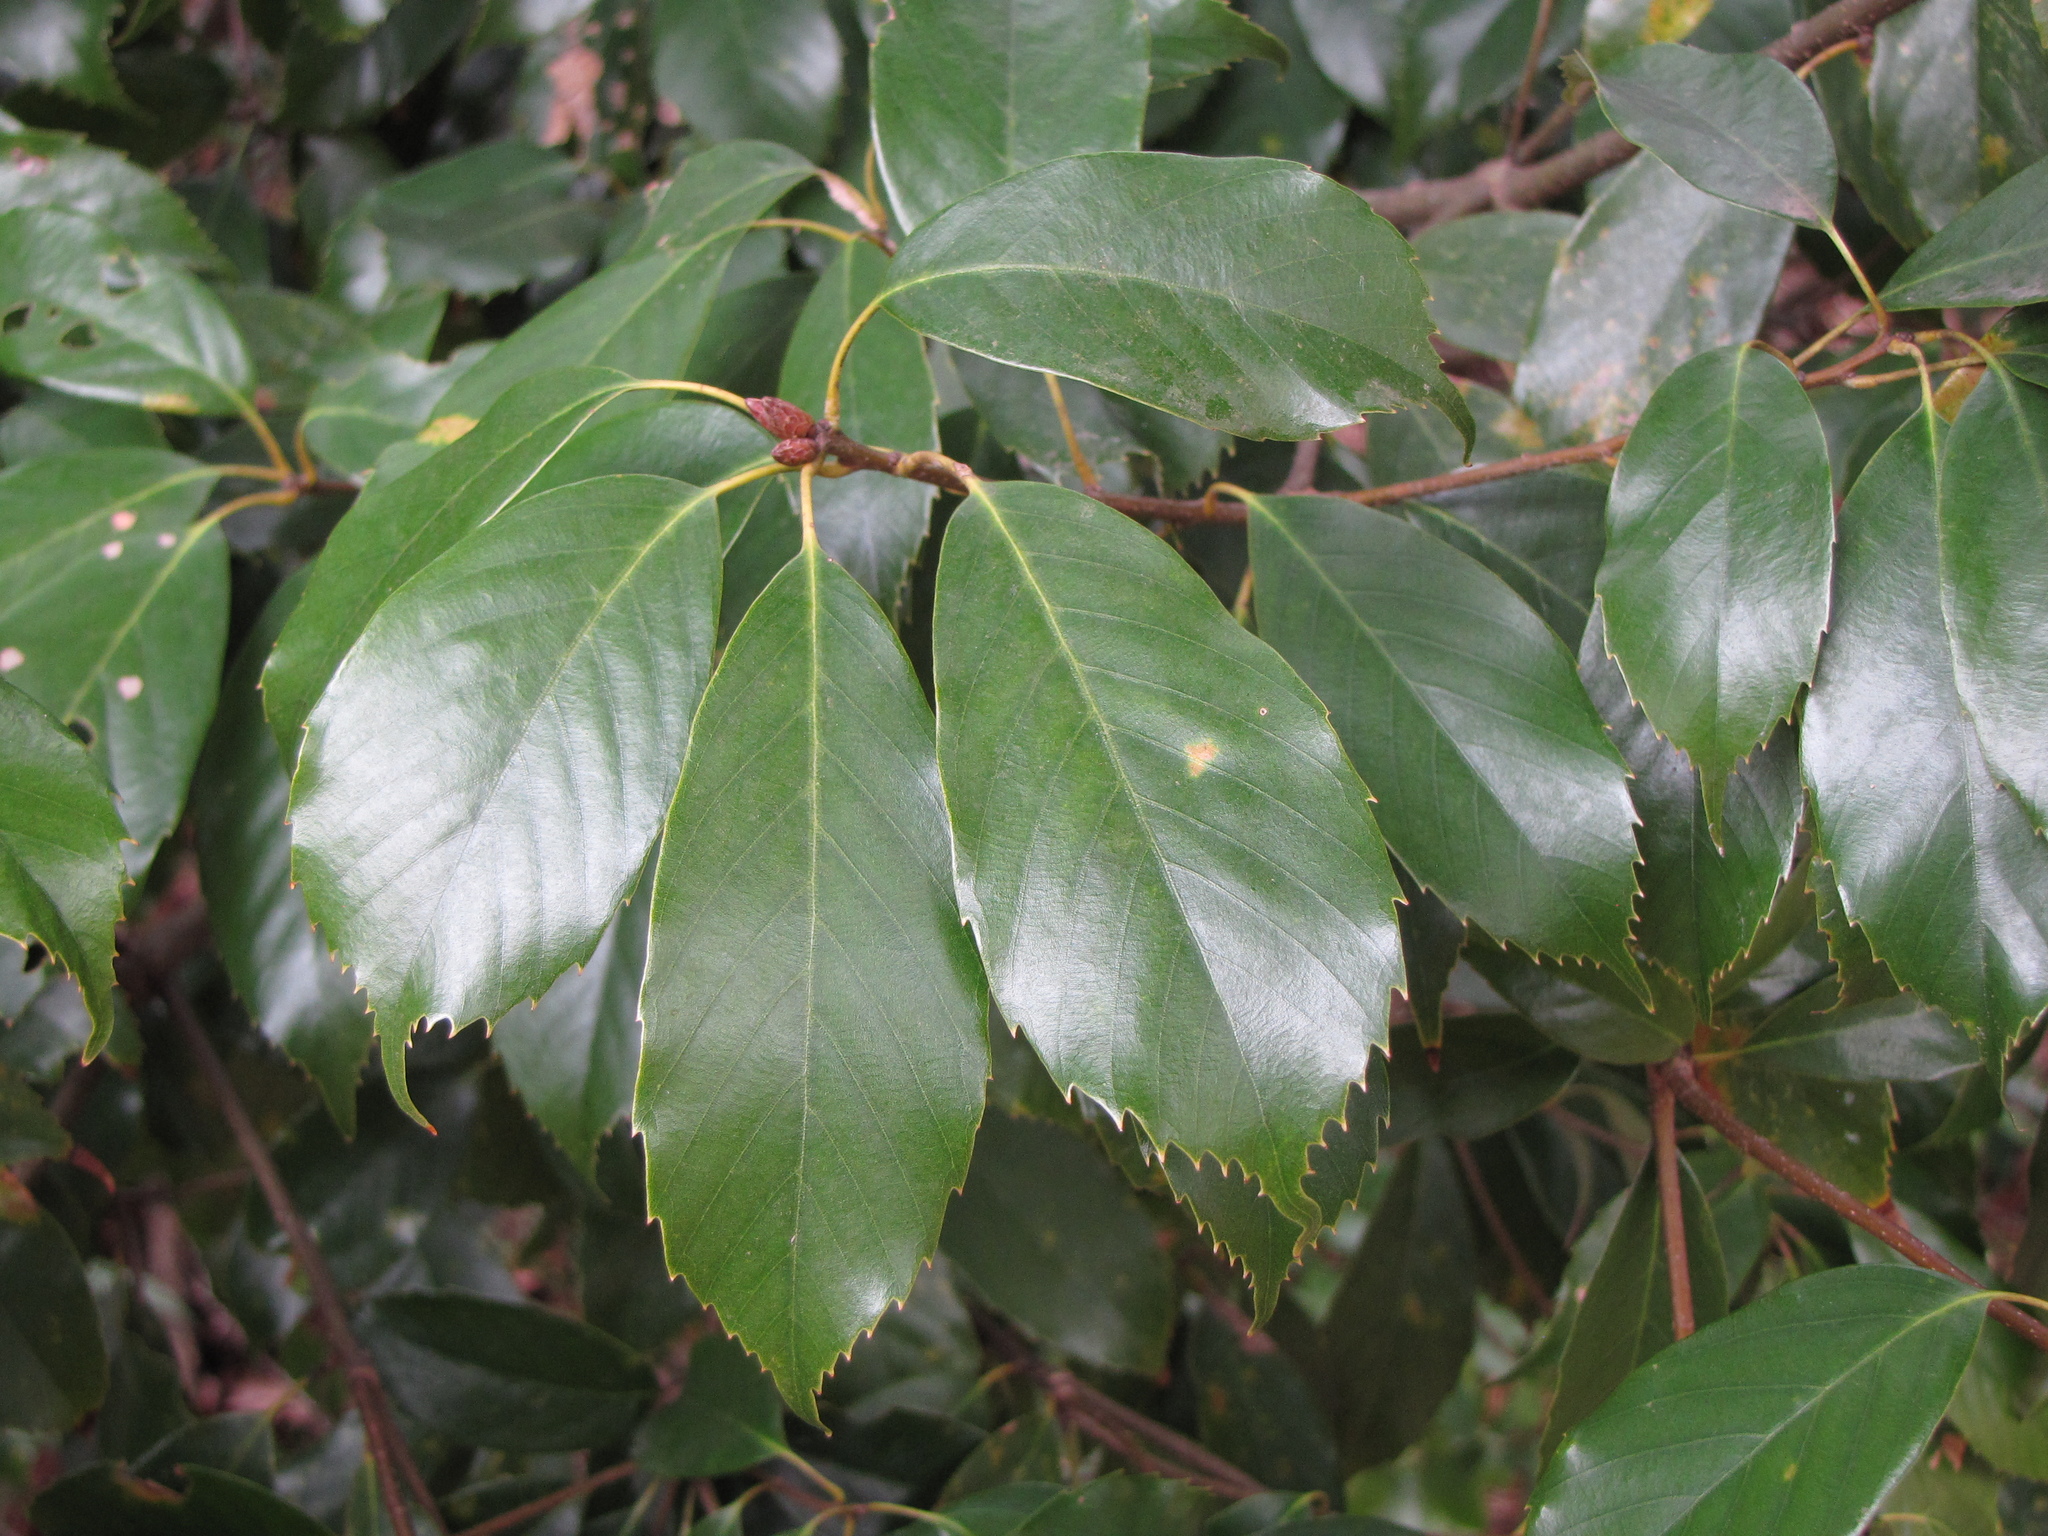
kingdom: Plantae
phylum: Tracheophyta
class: Magnoliopsida
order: Fagales
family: Fagaceae
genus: Quercus
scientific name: Quercus glauca
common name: Ring-cup oak
